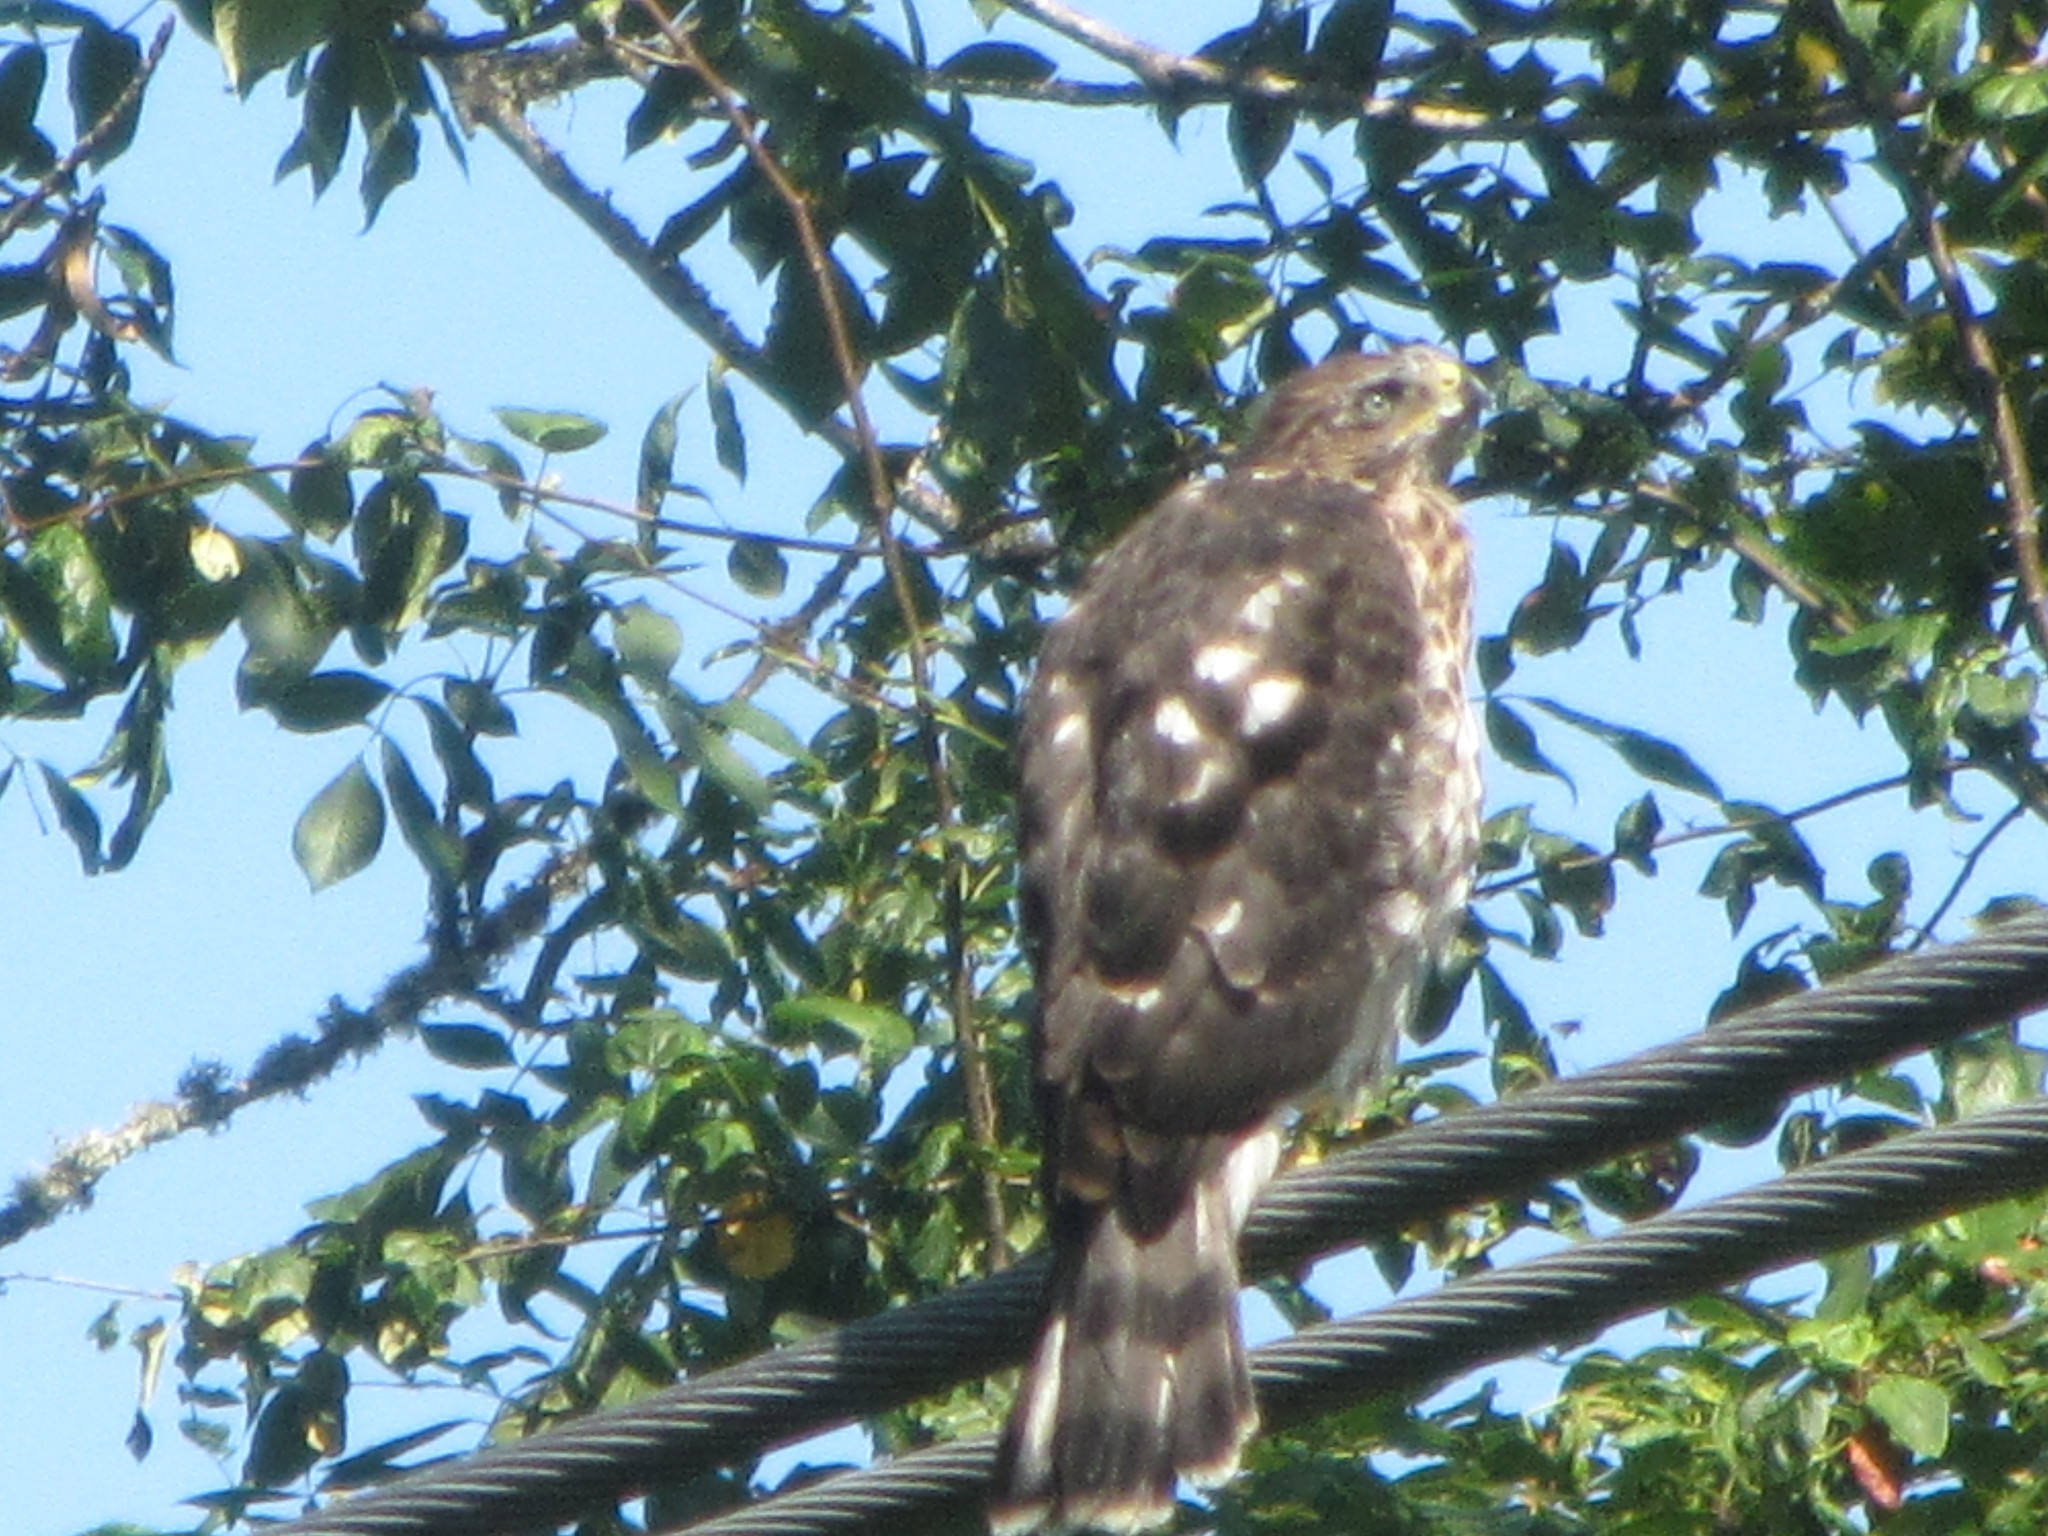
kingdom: Animalia
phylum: Chordata
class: Aves
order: Accipitriformes
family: Accipitridae
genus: Accipiter
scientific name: Accipiter cooperii
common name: Cooper's hawk
